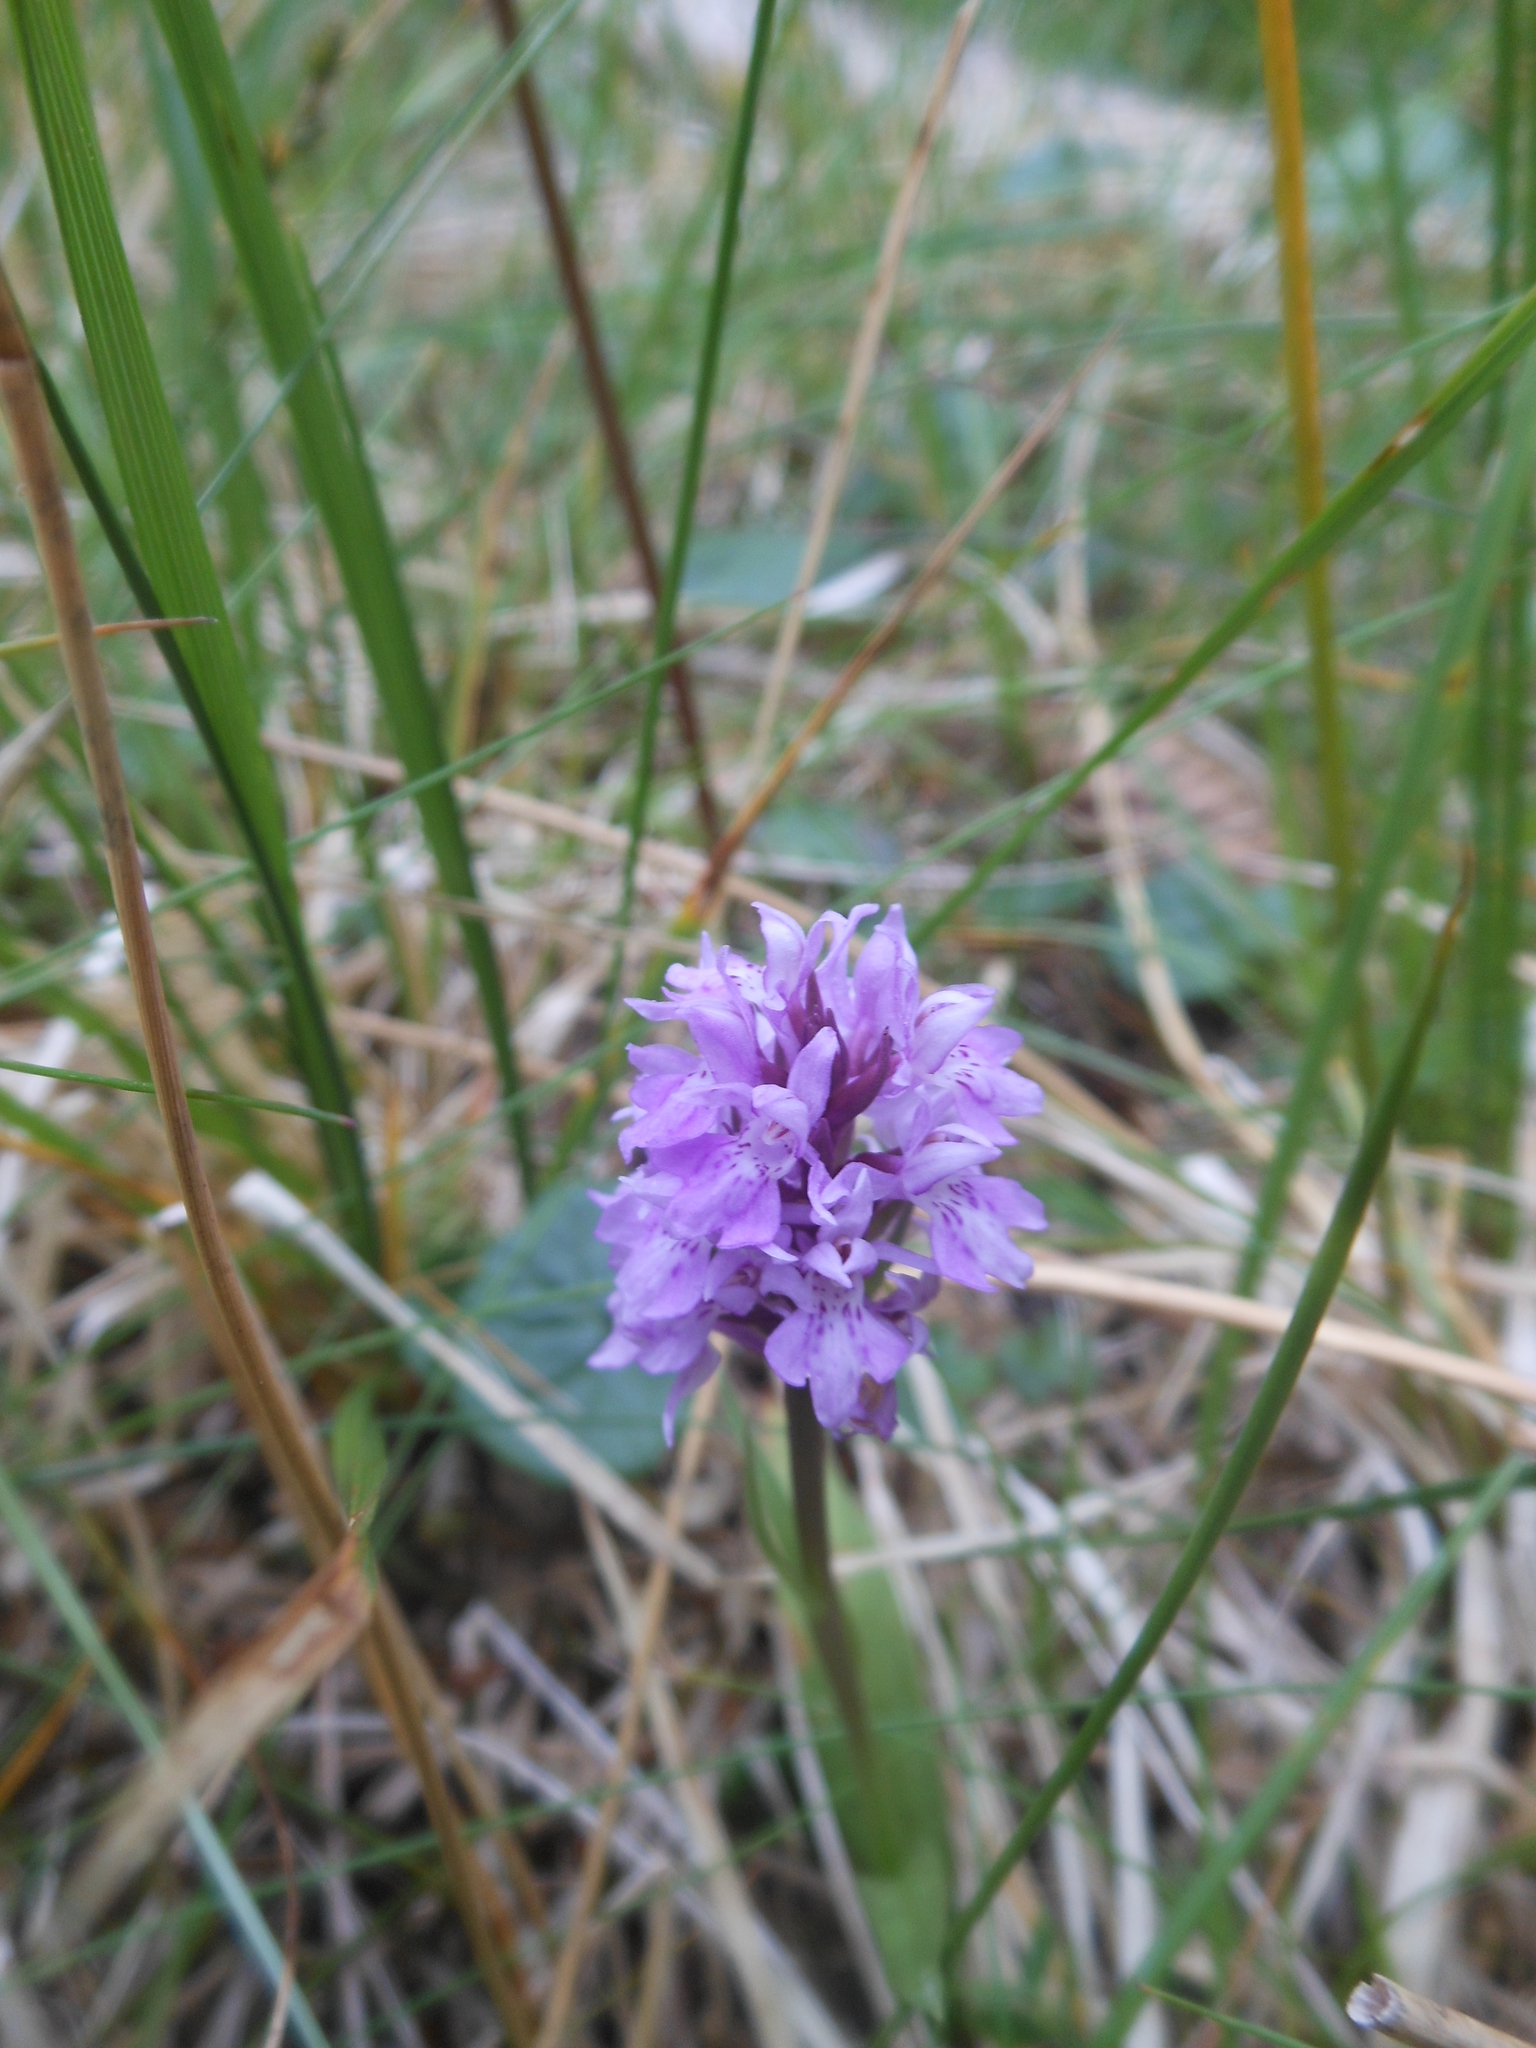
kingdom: Plantae
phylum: Tracheophyta
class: Liliopsida
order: Asparagales
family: Orchidaceae
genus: Dactylorhiza
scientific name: Dactylorhiza maculata
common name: Heath spotted-orchid
